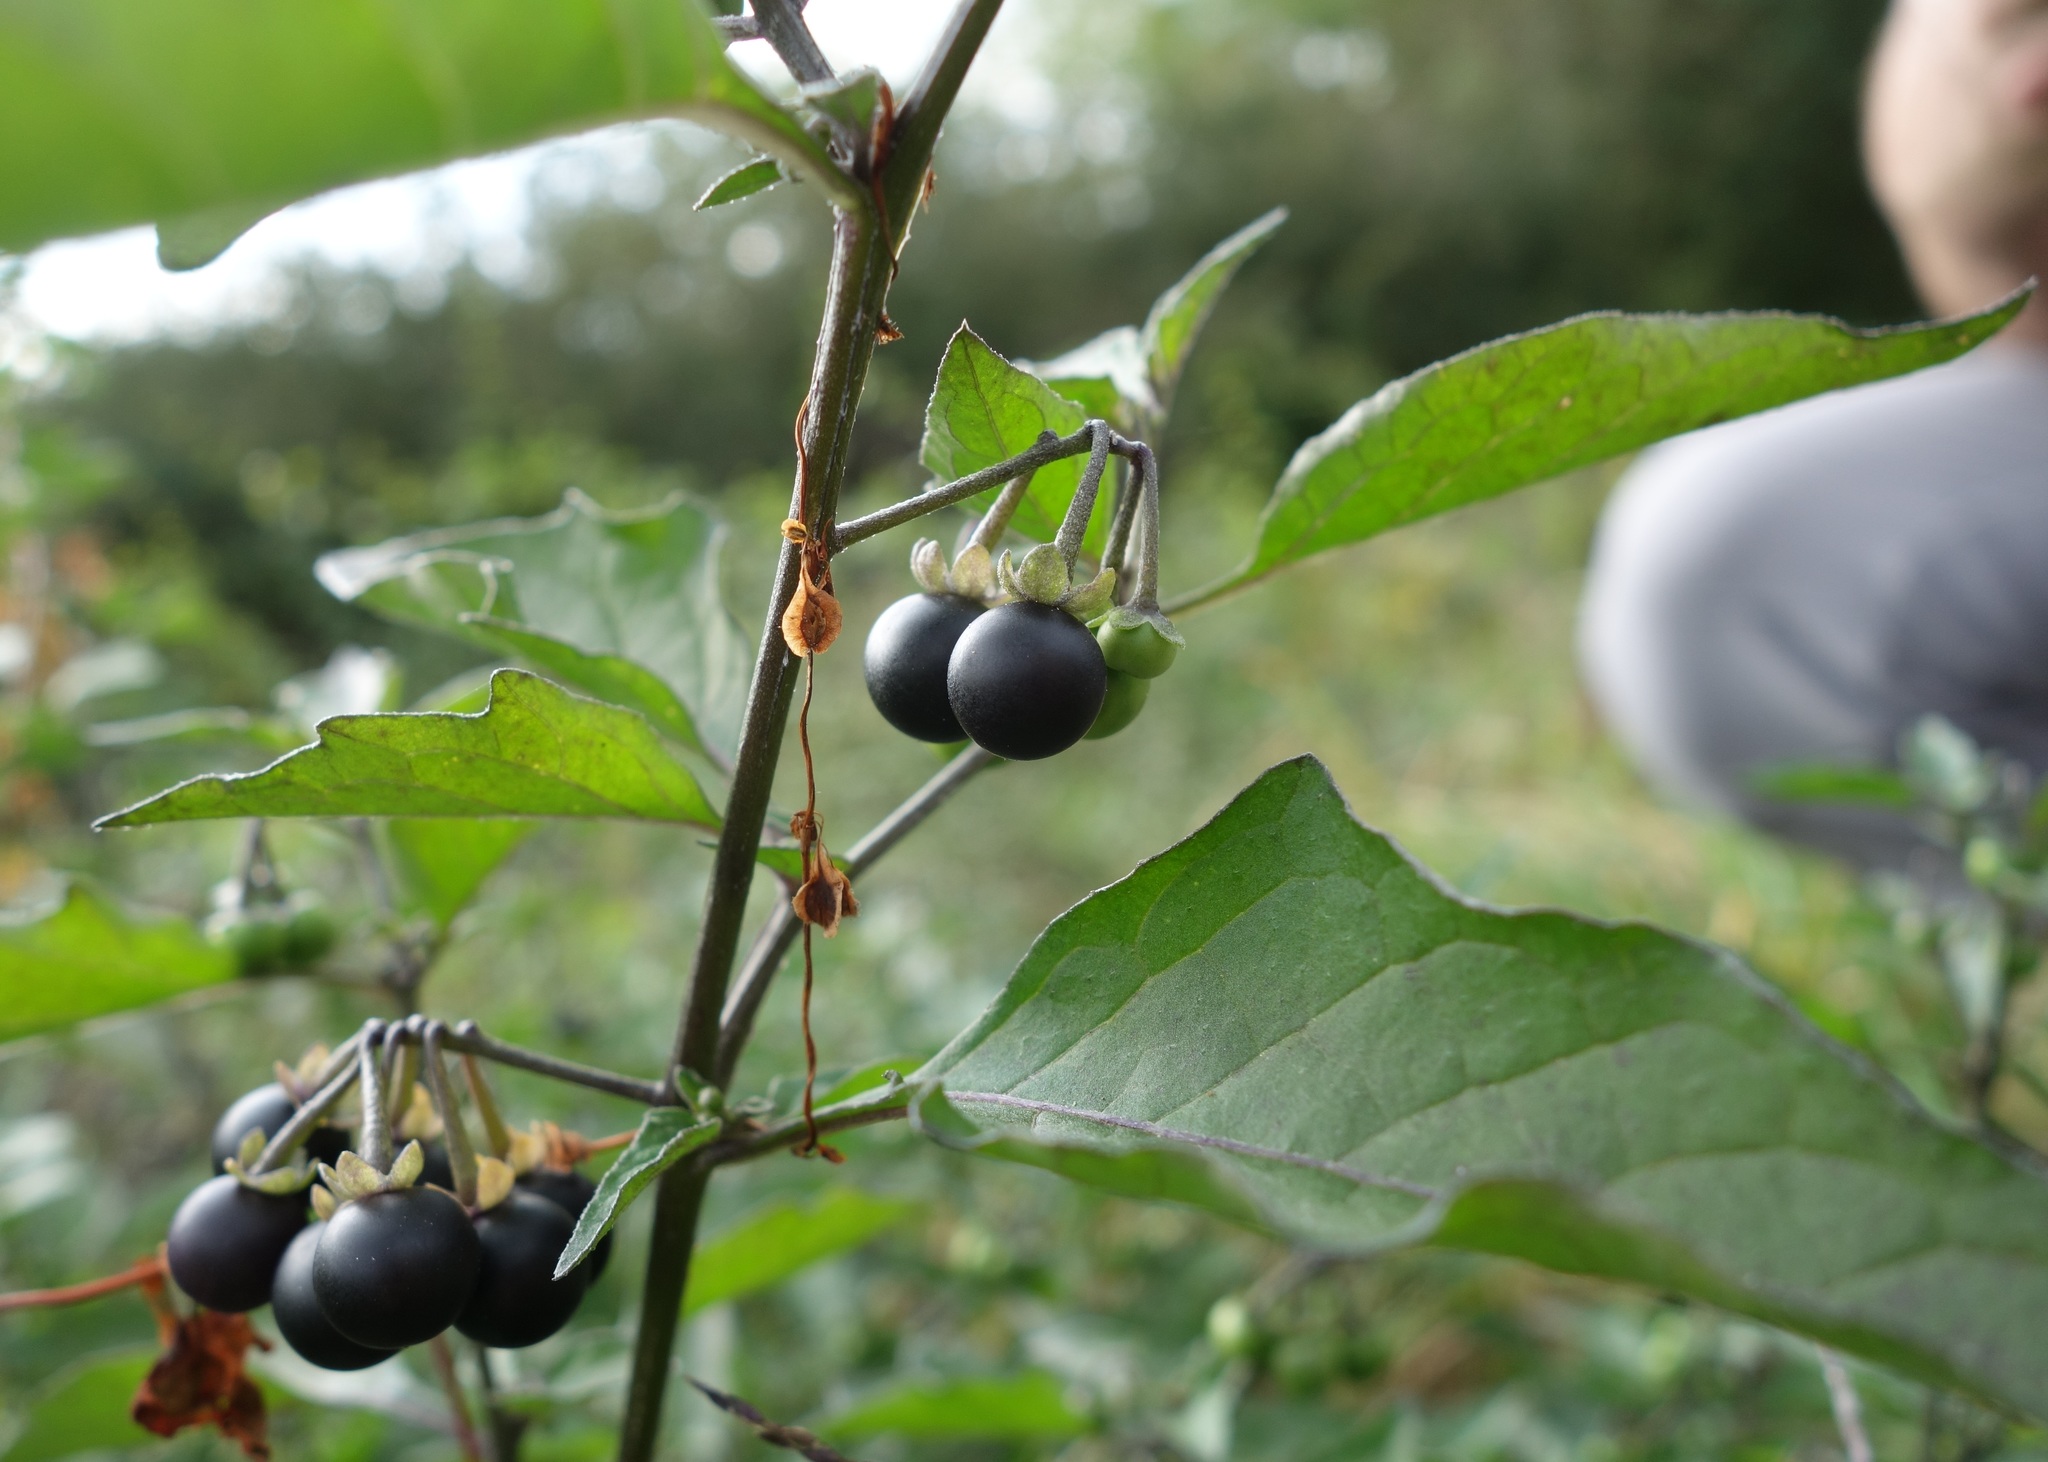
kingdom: Plantae
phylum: Tracheophyta
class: Magnoliopsida
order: Solanales
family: Solanaceae
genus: Solanum
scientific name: Solanum nigrum
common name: Black nightshade
